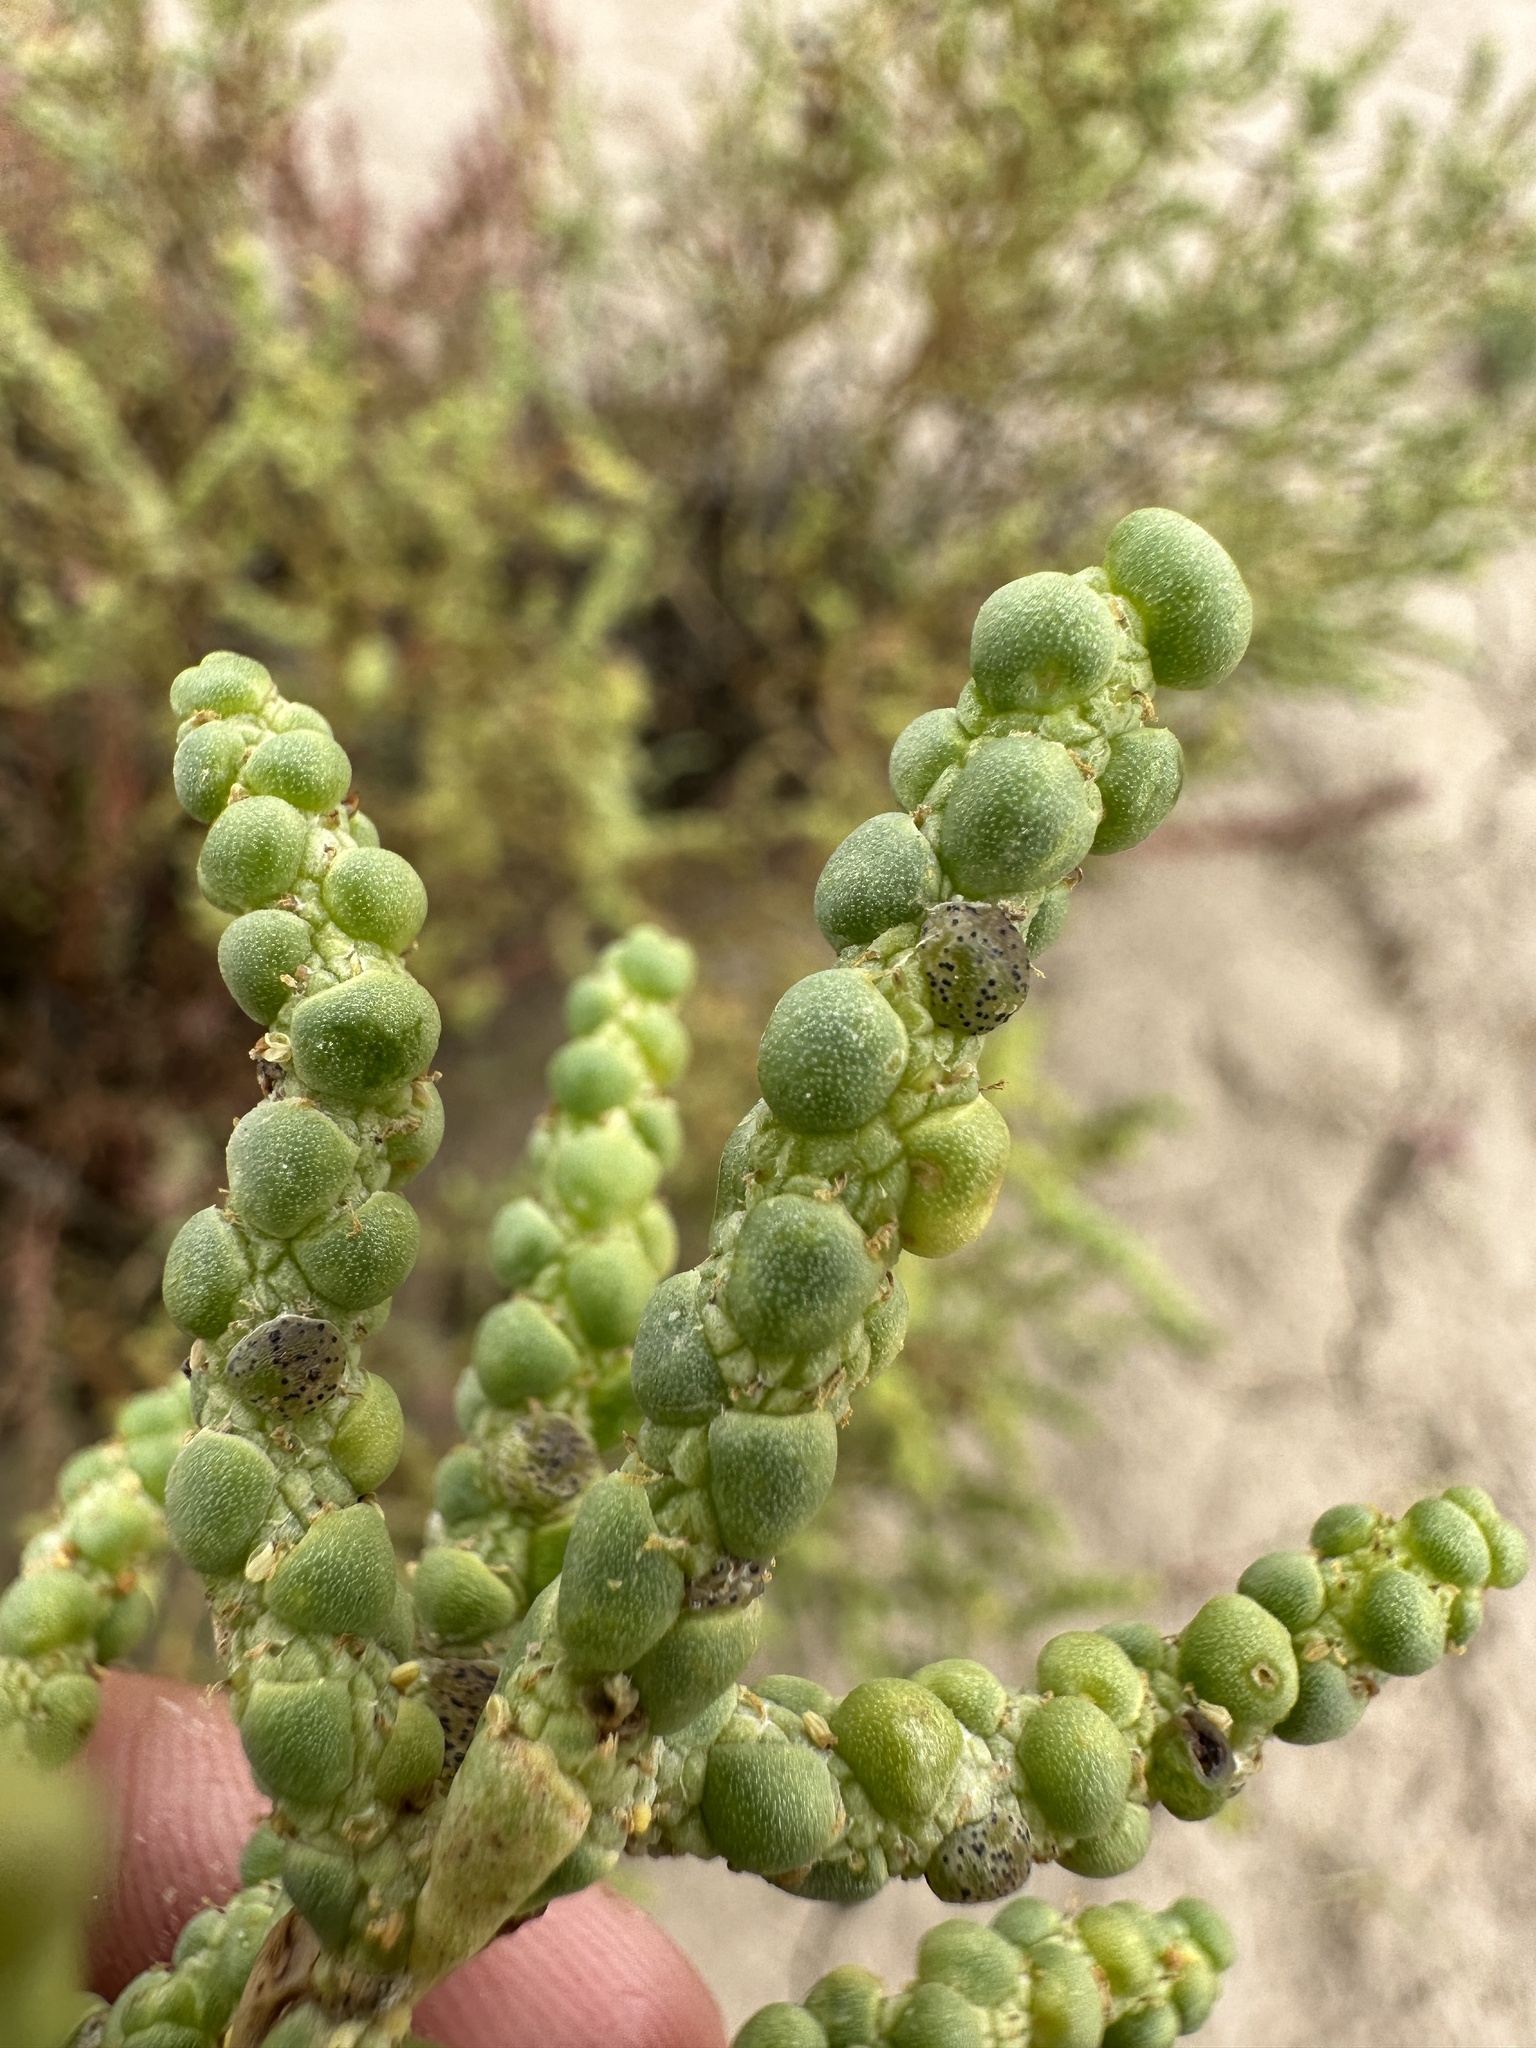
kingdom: Plantae
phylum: Tracheophyta
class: Magnoliopsida
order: Caryophyllales
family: Amaranthaceae
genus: Allenrolfea
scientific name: Allenrolfea occidentalis
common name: Iodine-bush
